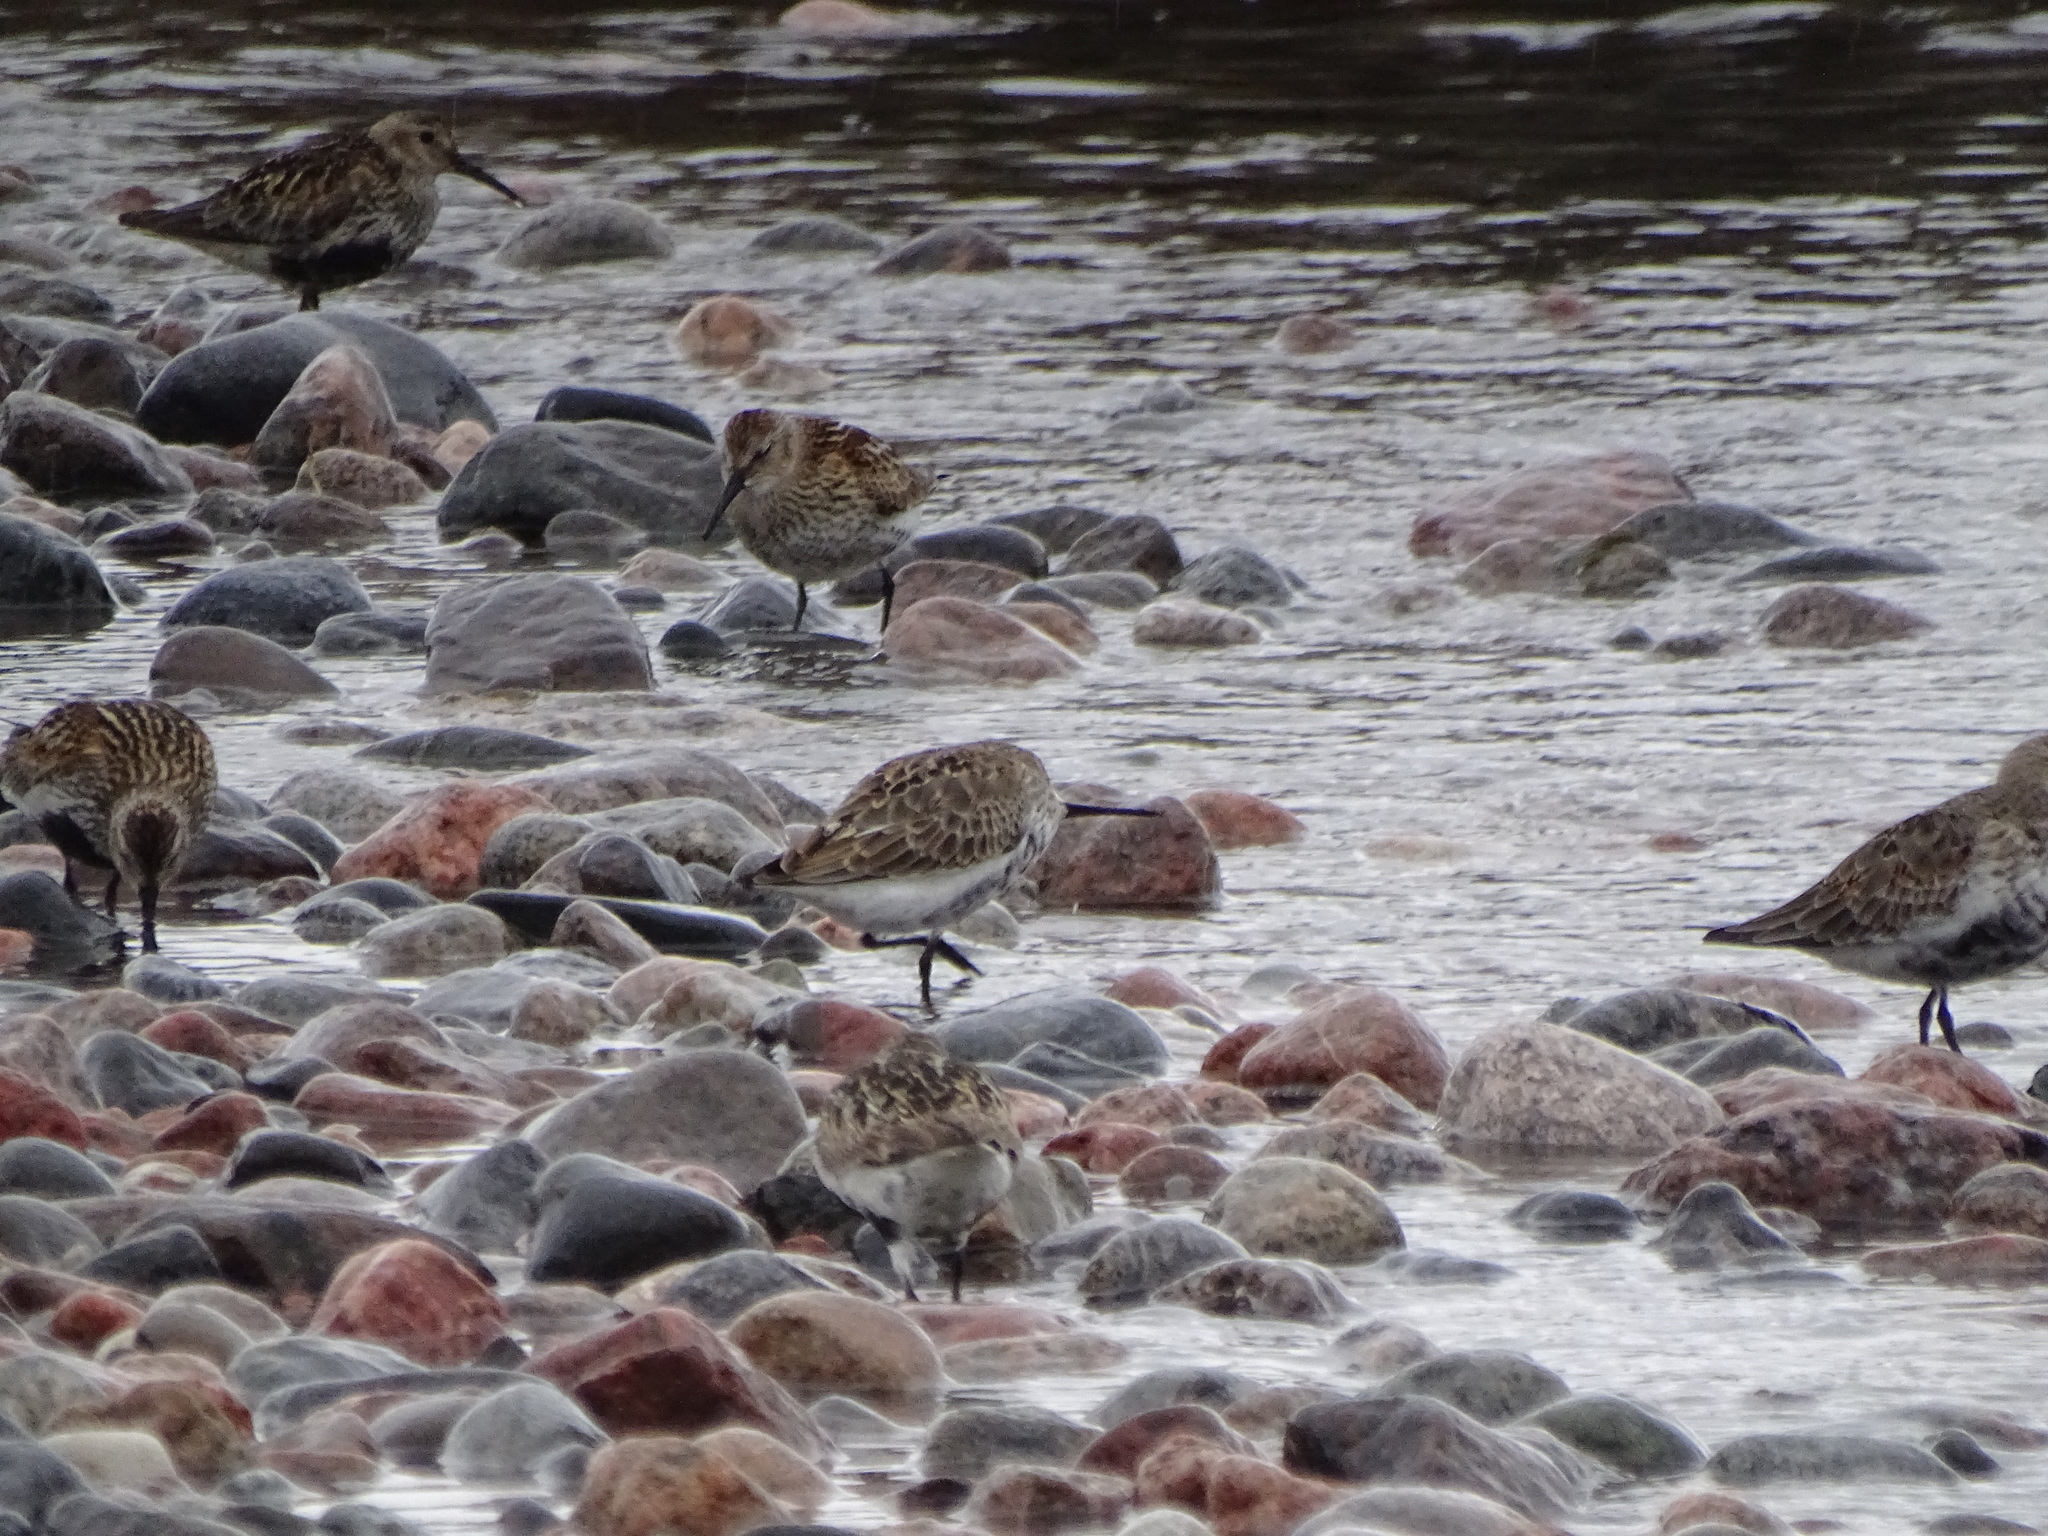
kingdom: Animalia
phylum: Chordata
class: Aves
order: Charadriiformes
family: Scolopacidae
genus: Calidris
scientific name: Calidris alpina
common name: Dunlin
